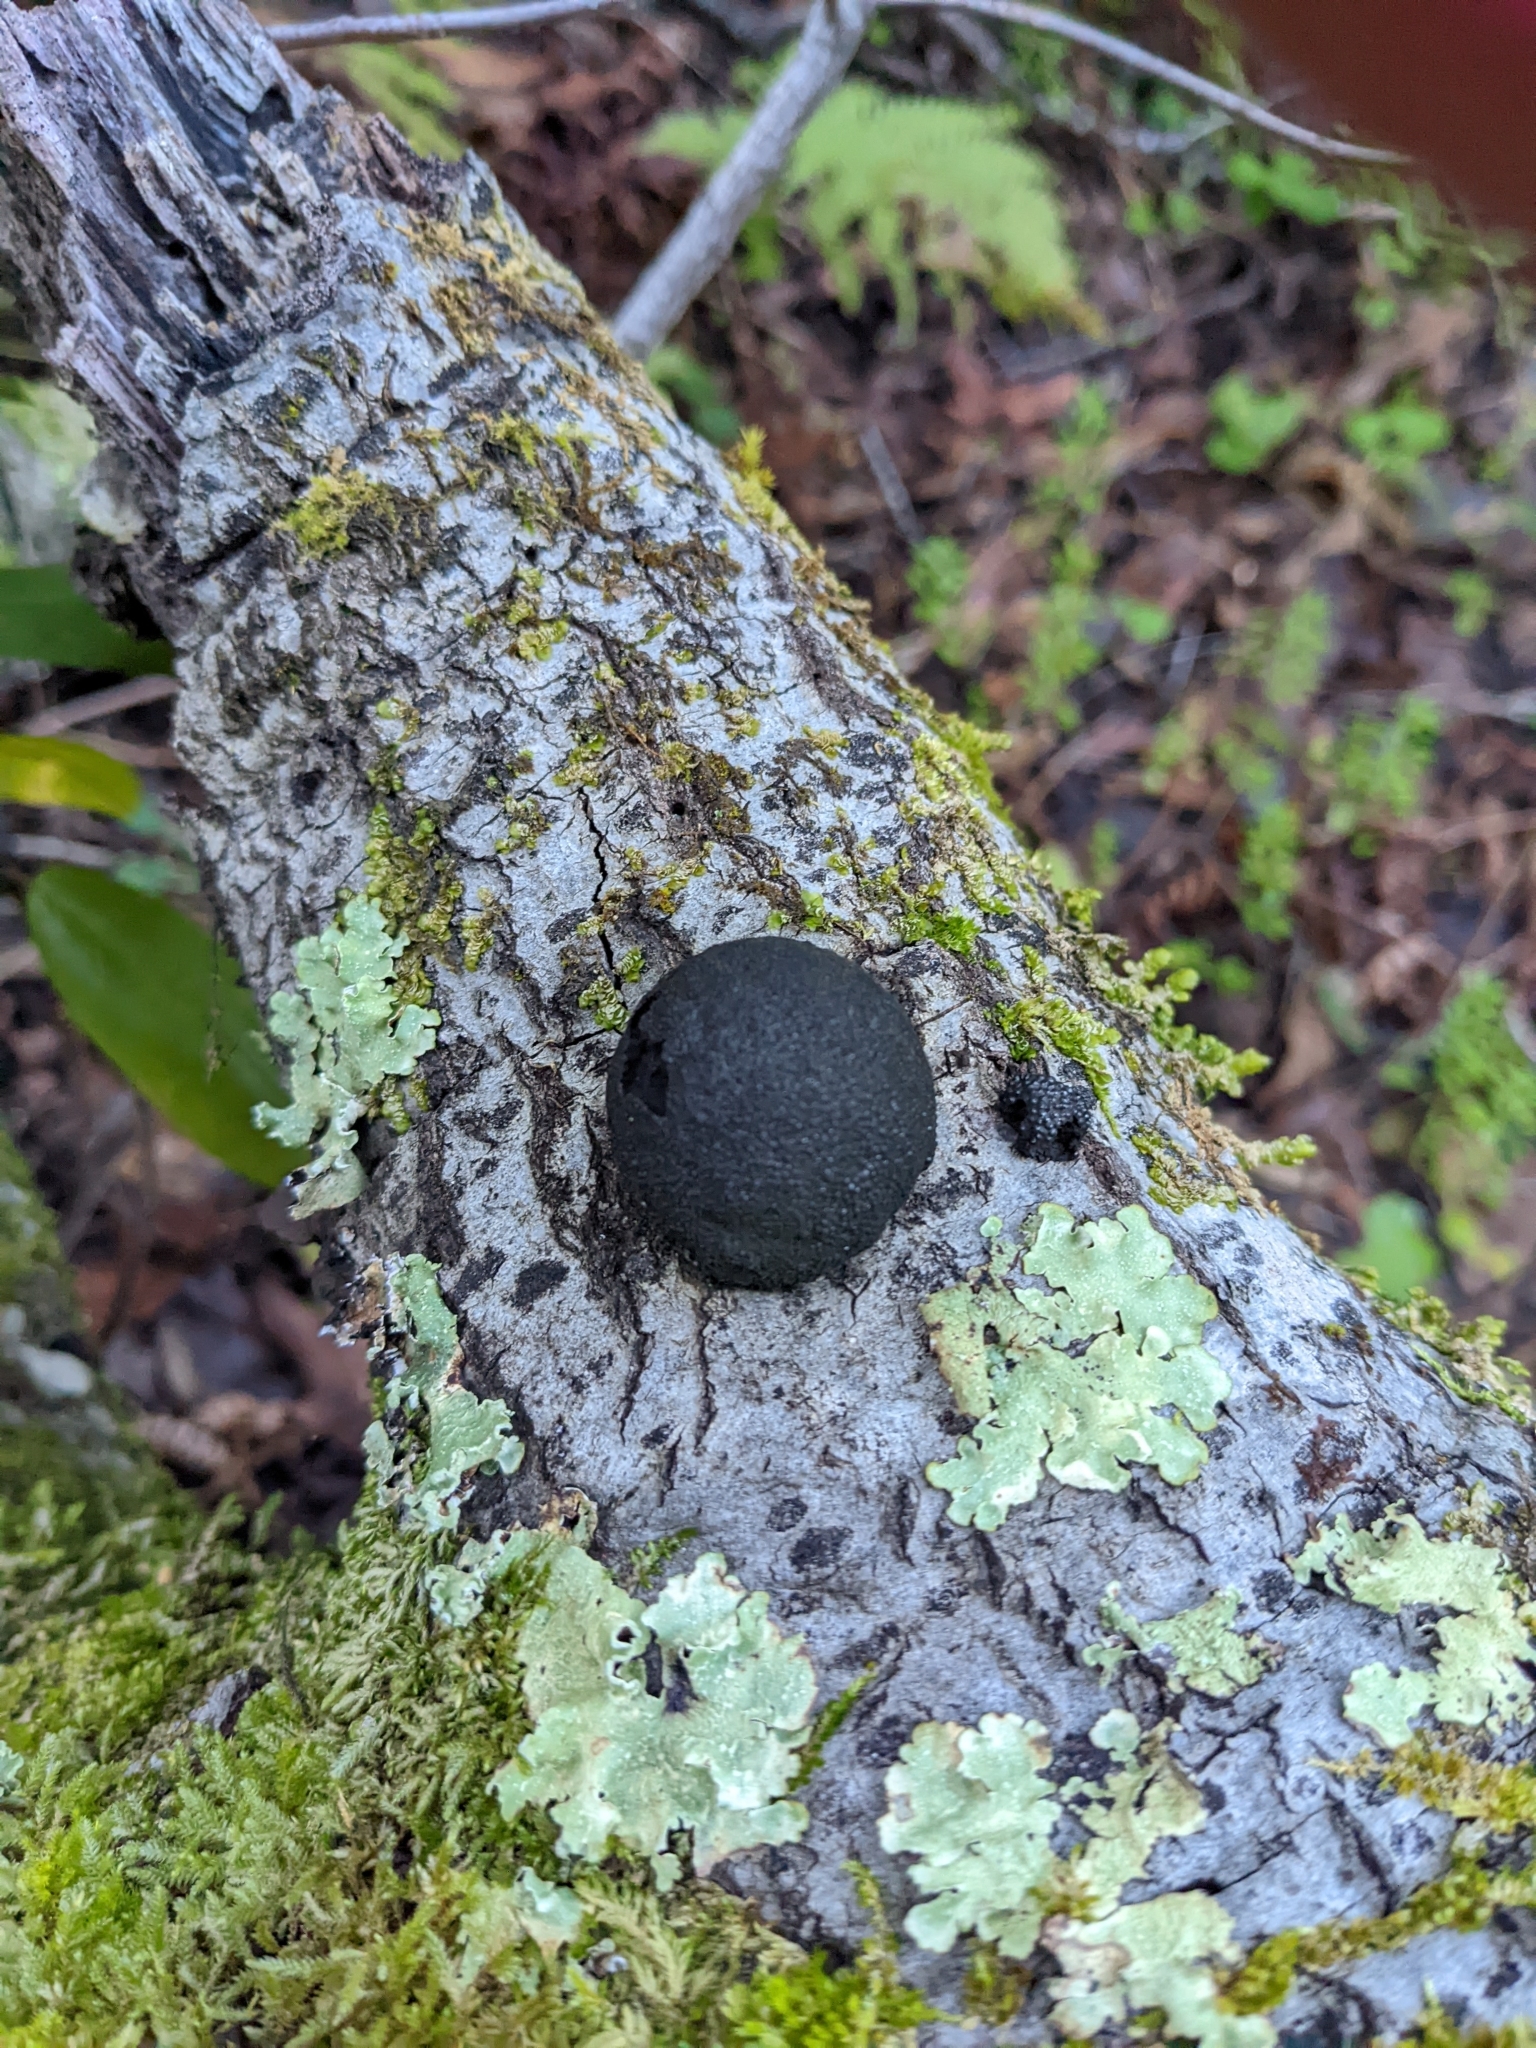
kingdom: Fungi
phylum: Ascomycota
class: Sordariomycetes
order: Xylariales
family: Hypoxylaceae
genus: Annulohypoxylon
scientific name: Annulohypoxylon thouarsianum
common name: Cramp balls
